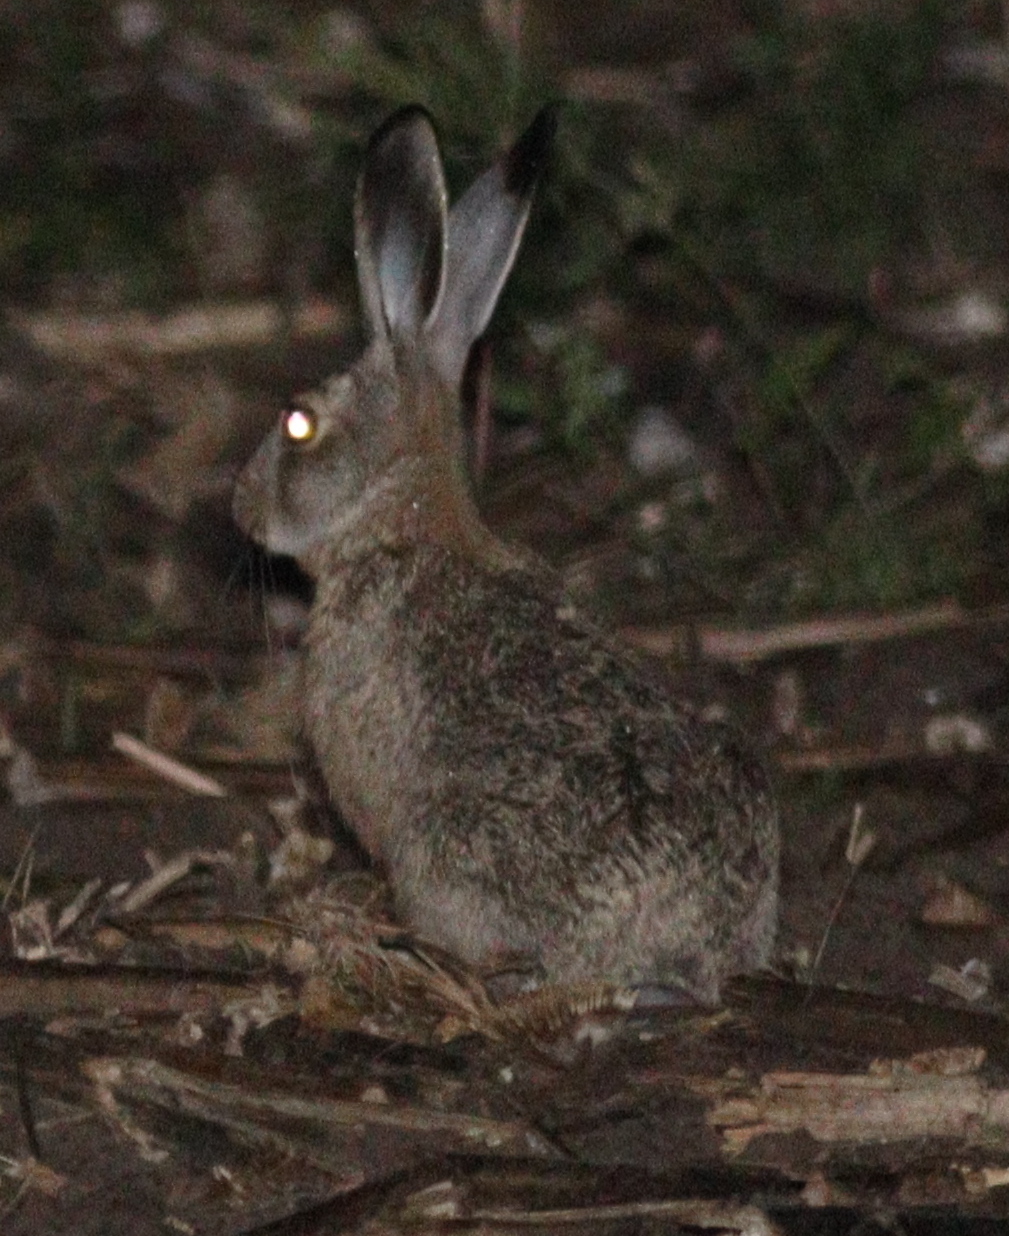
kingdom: Animalia
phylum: Chordata
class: Mammalia
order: Lagomorpha
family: Leporidae
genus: Lepus
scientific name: Lepus europaeus
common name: European hare
